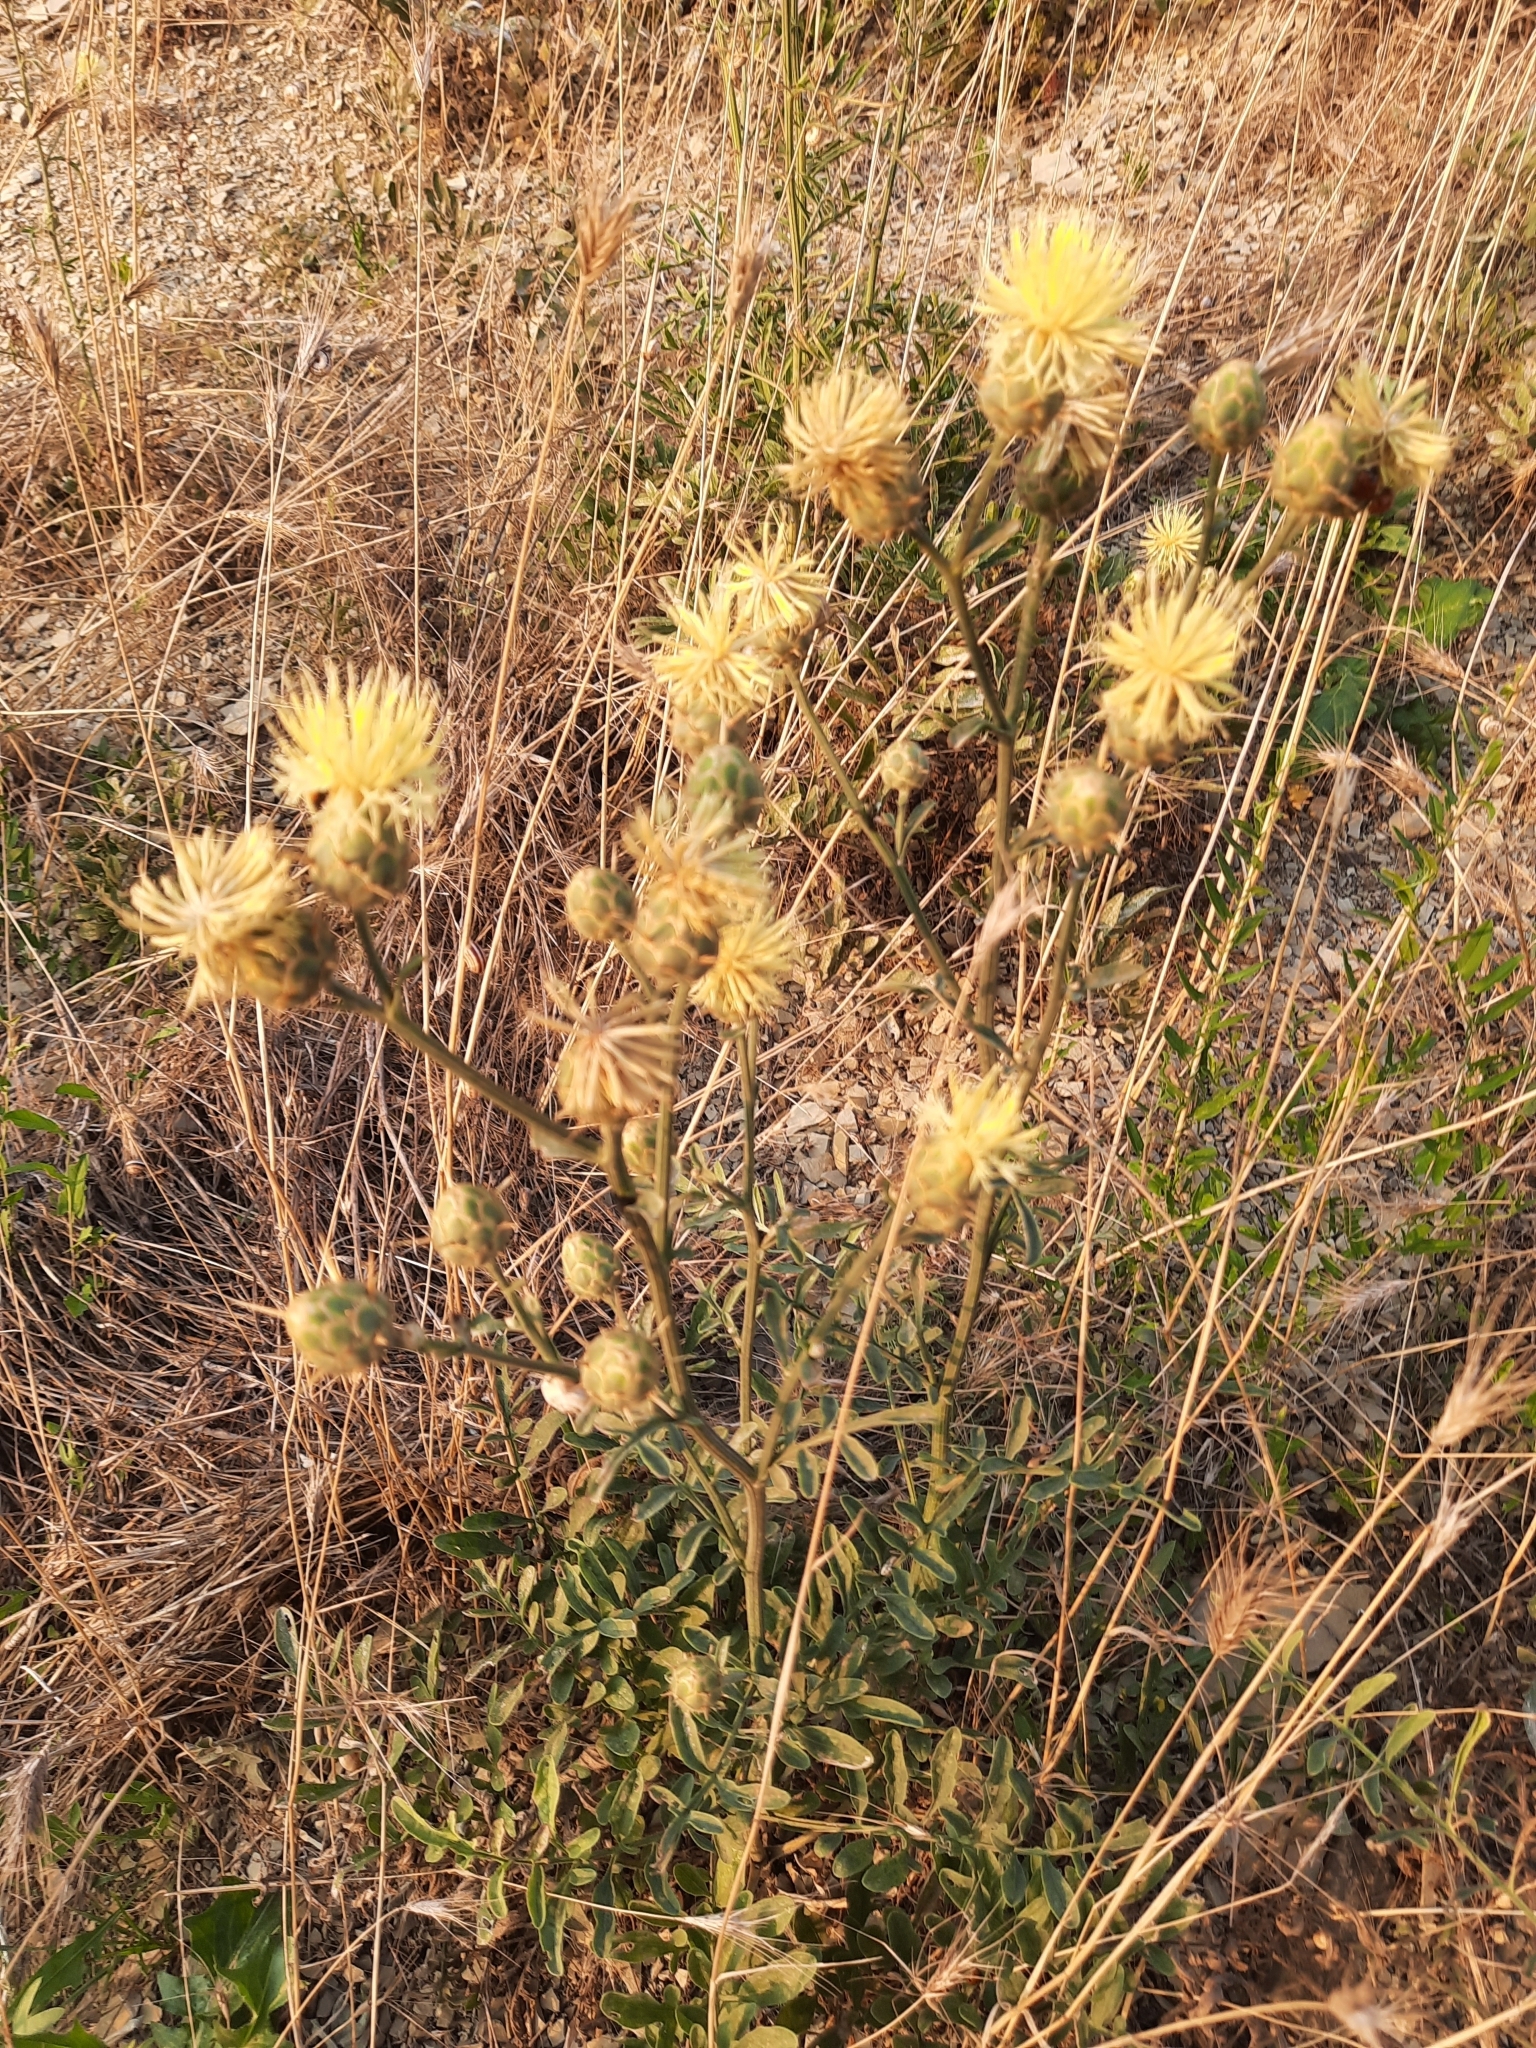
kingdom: Plantae
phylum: Tracheophyta
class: Magnoliopsida
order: Asterales
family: Asteraceae
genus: Centaurea
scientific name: Centaurea salonitana
